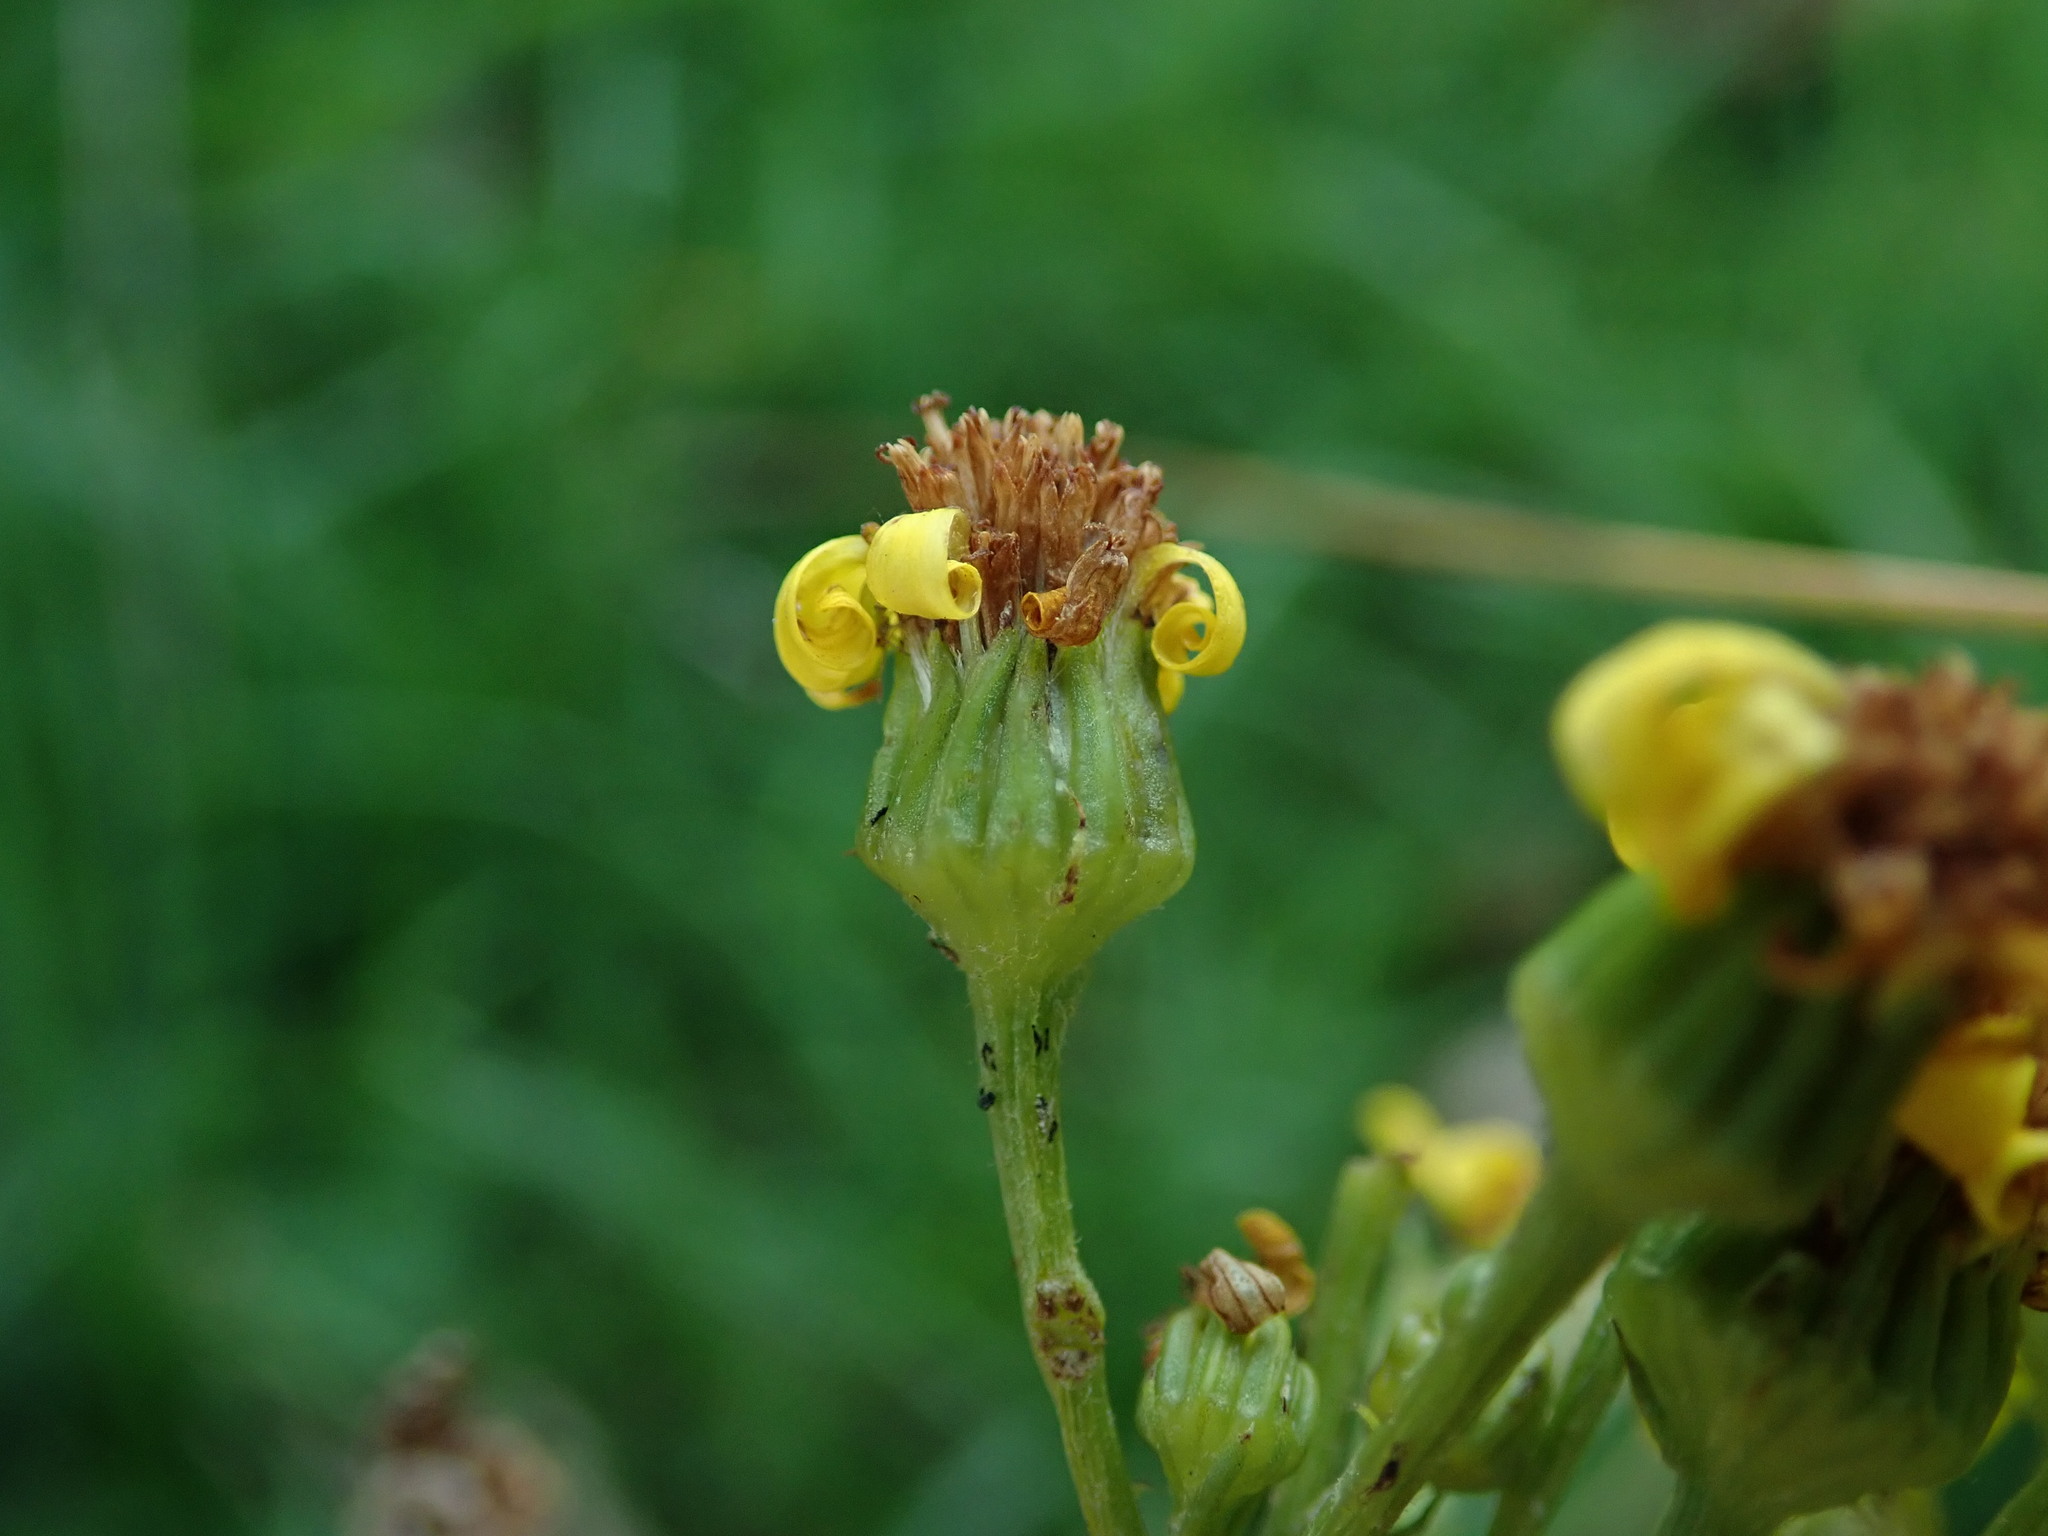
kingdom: Plantae
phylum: Tracheophyta
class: Magnoliopsida
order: Asterales
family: Asteraceae
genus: Jacobaea
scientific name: Jacobaea vulgaris
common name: Stinking willie
